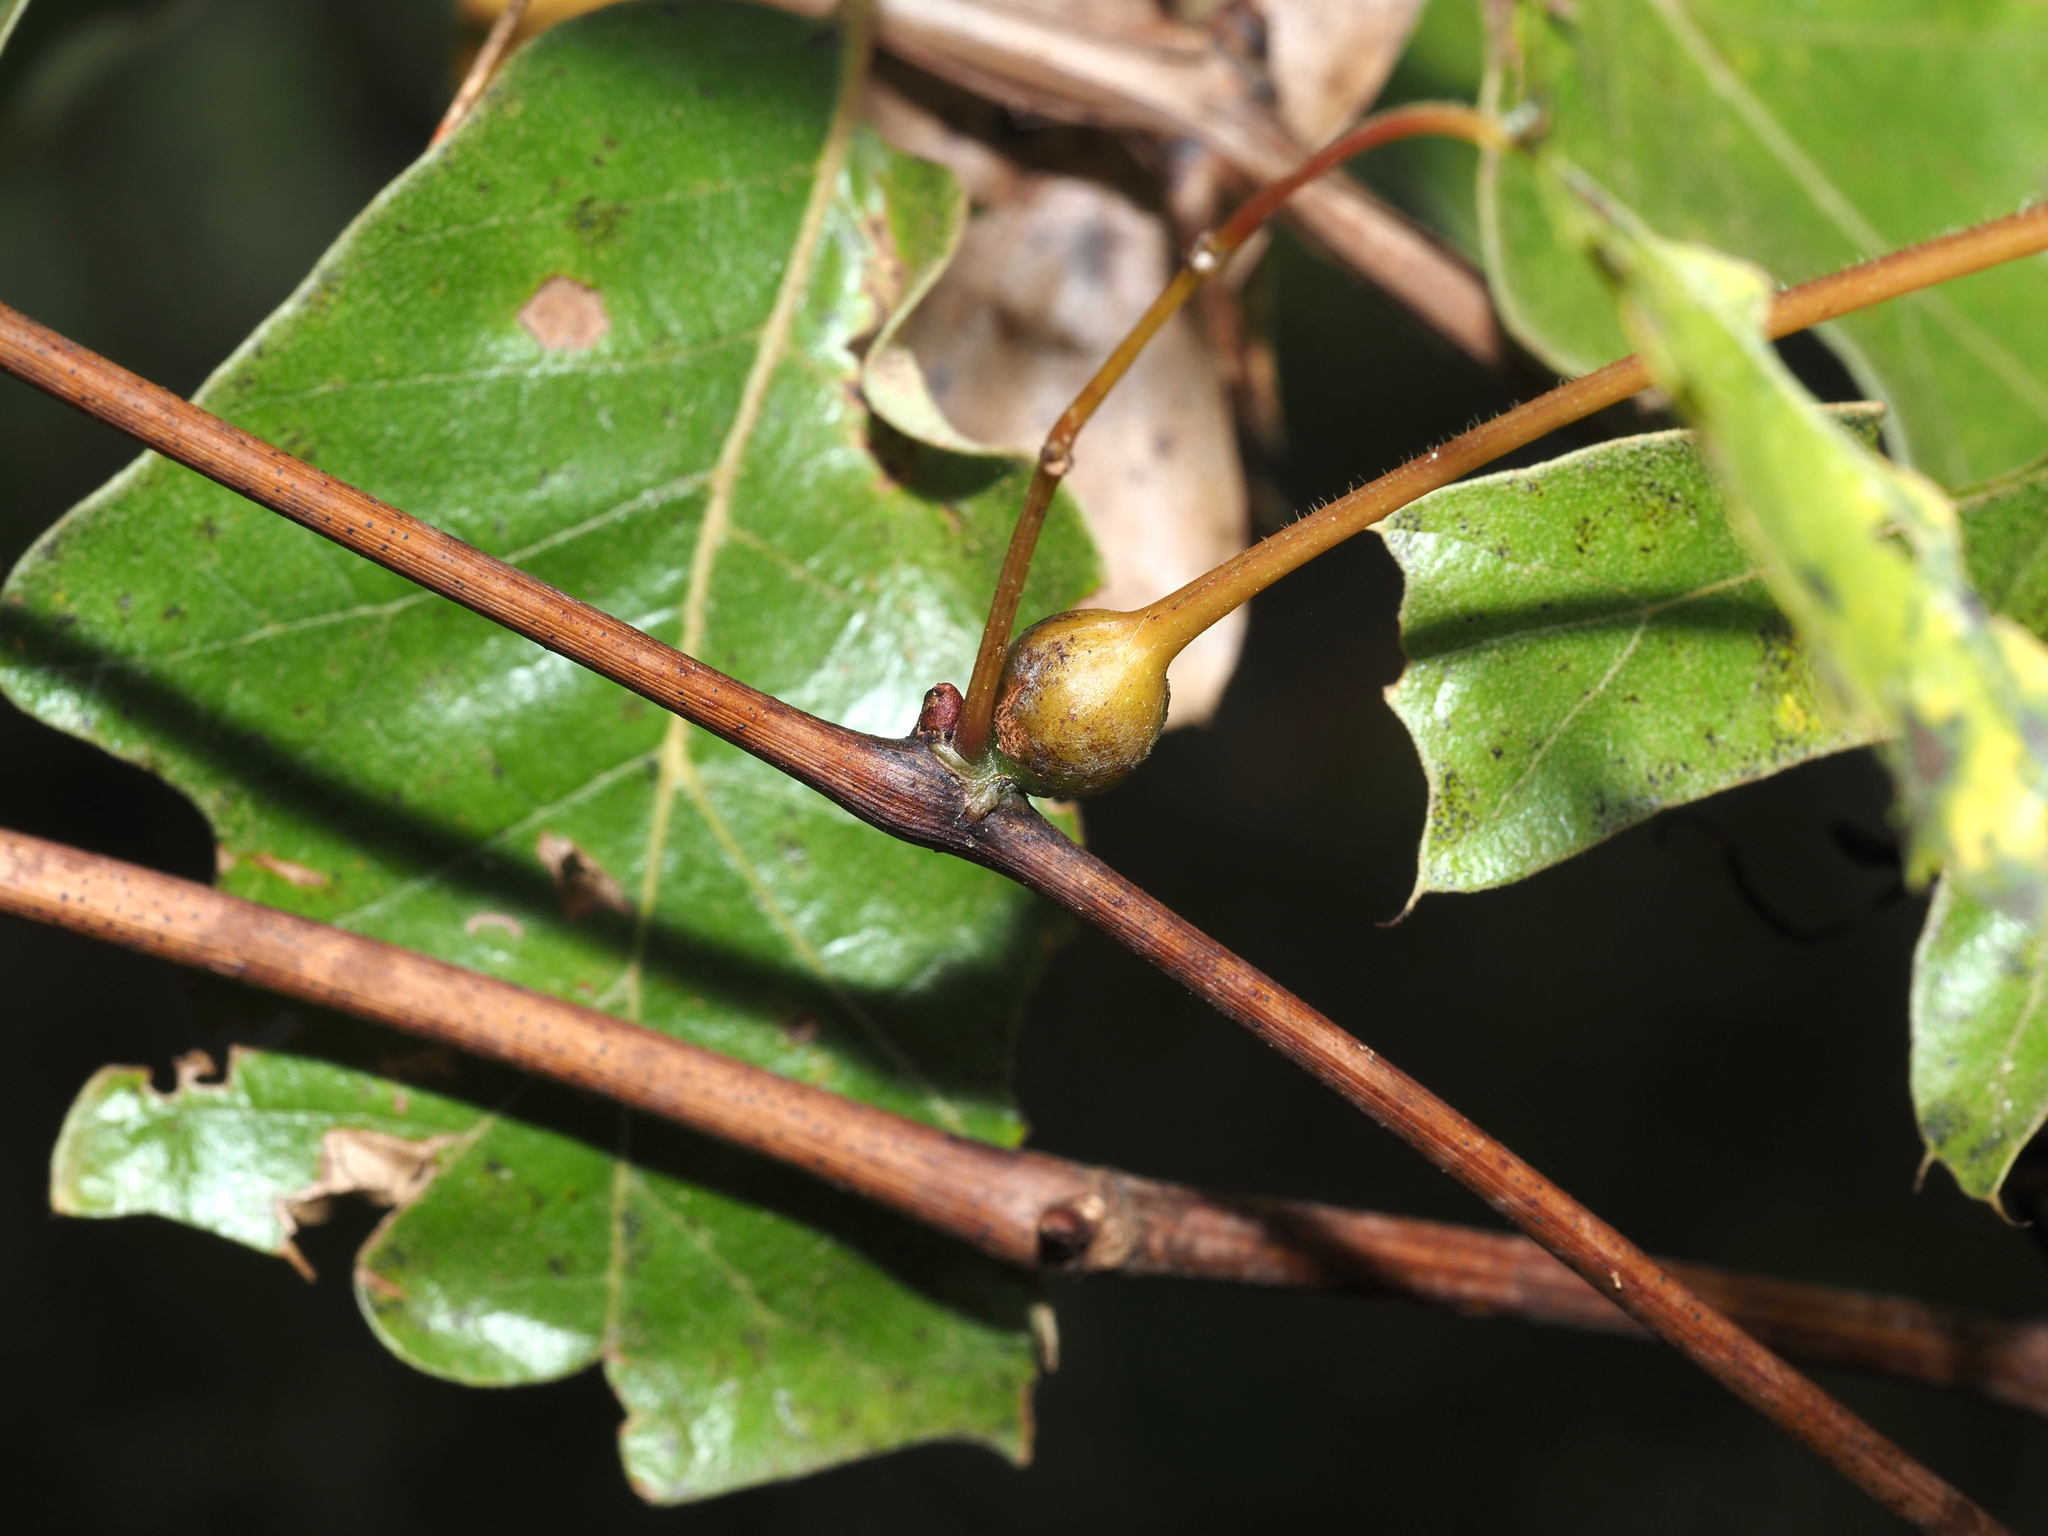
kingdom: Animalia
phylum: Arthropoda
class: Insecta
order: Diptera
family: Cecidomyiidae
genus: Neolasioptera
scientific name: Neolasioptera vitinea
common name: Grape leaf petiole gall
